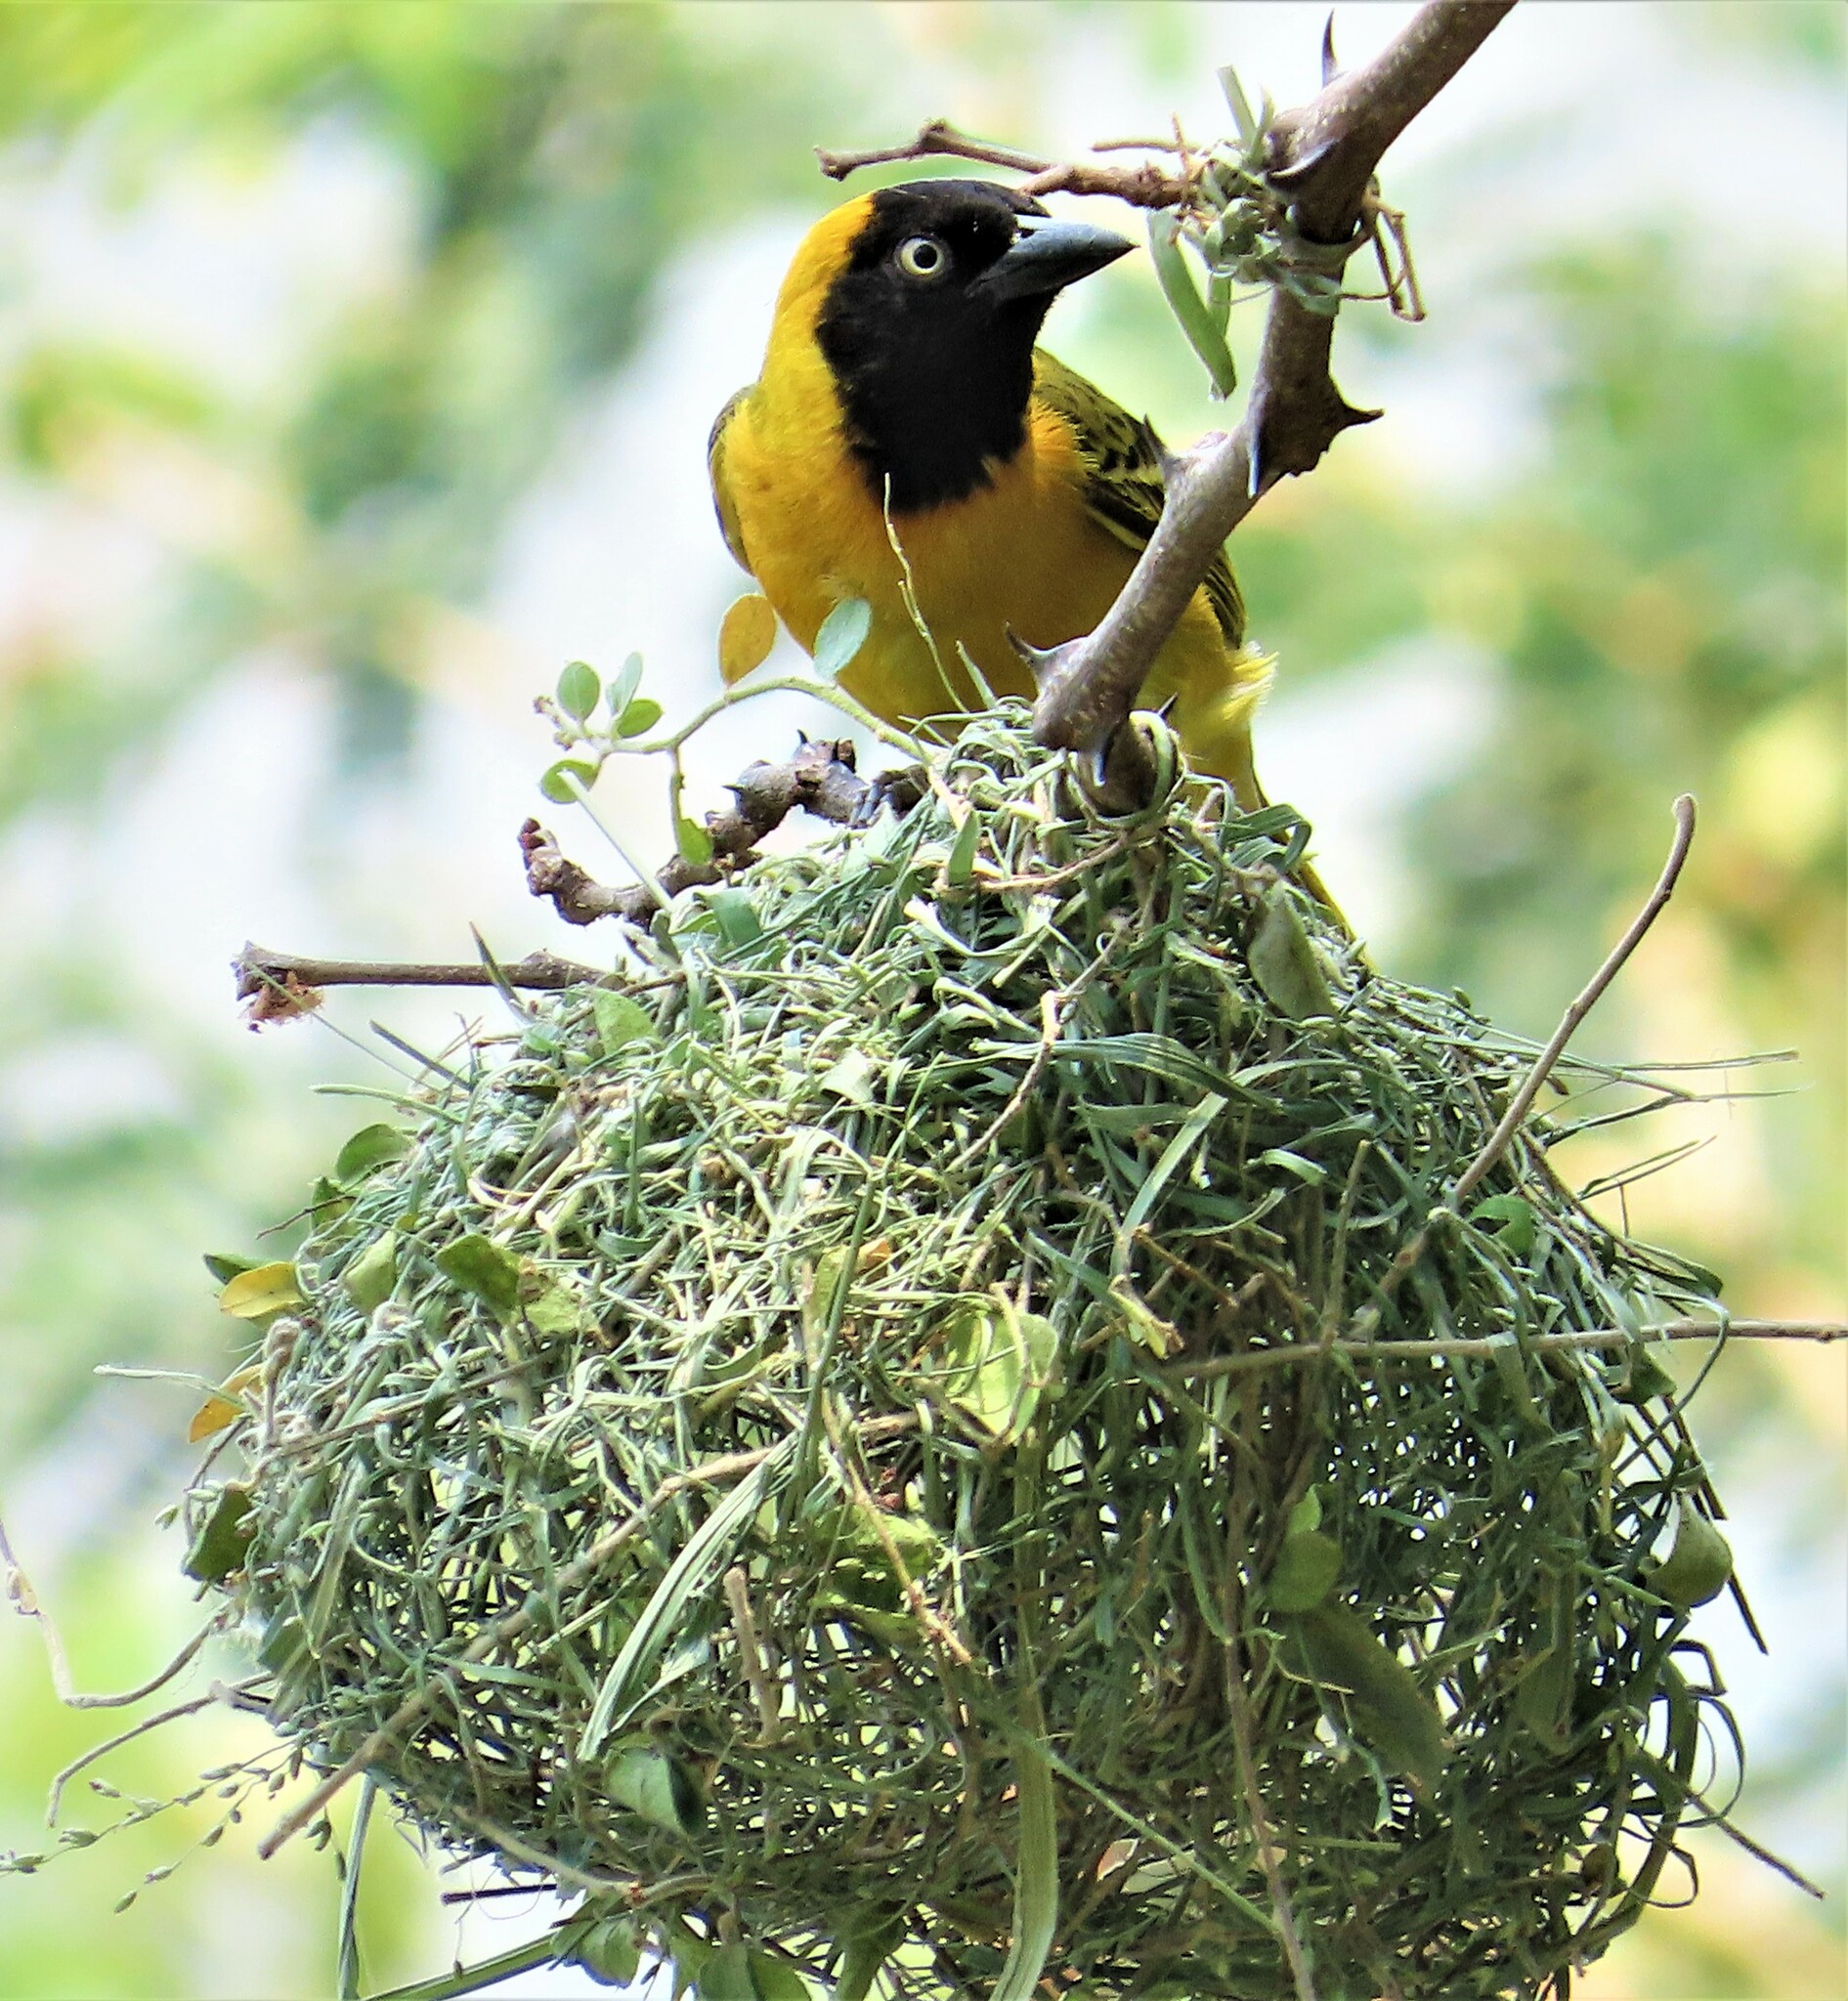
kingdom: Animalia
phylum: Chordata
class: Aves
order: Passeriformes
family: Ploceidae
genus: Ploceus
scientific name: Ploceus intermedius
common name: Lesser masked weaver
